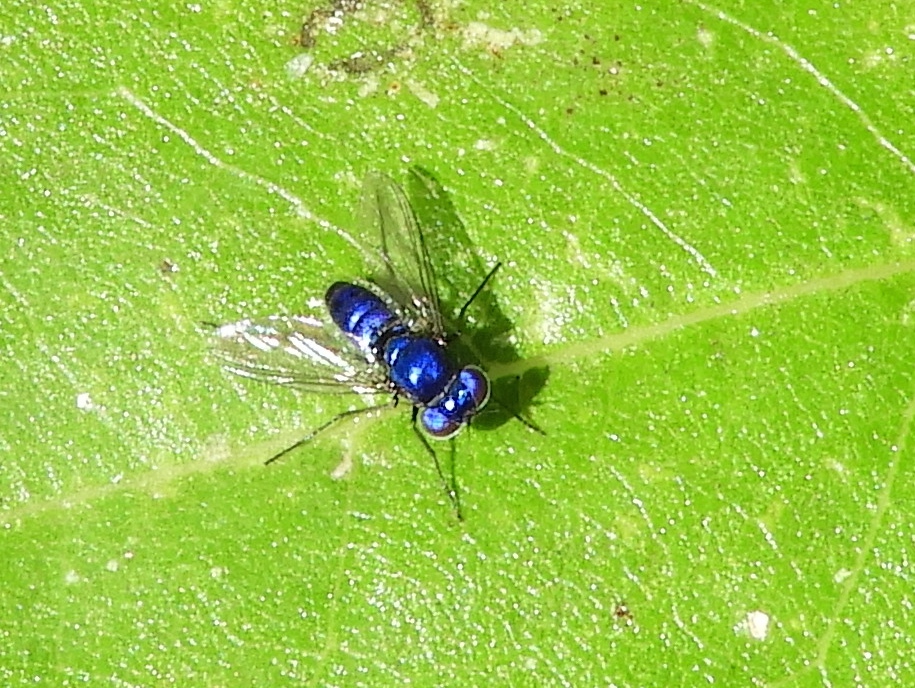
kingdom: Animalia
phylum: Arthropoda
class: Insecta
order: Diptera
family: Dolichopodidae
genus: Condylostylus
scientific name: Condylostylus mundus
